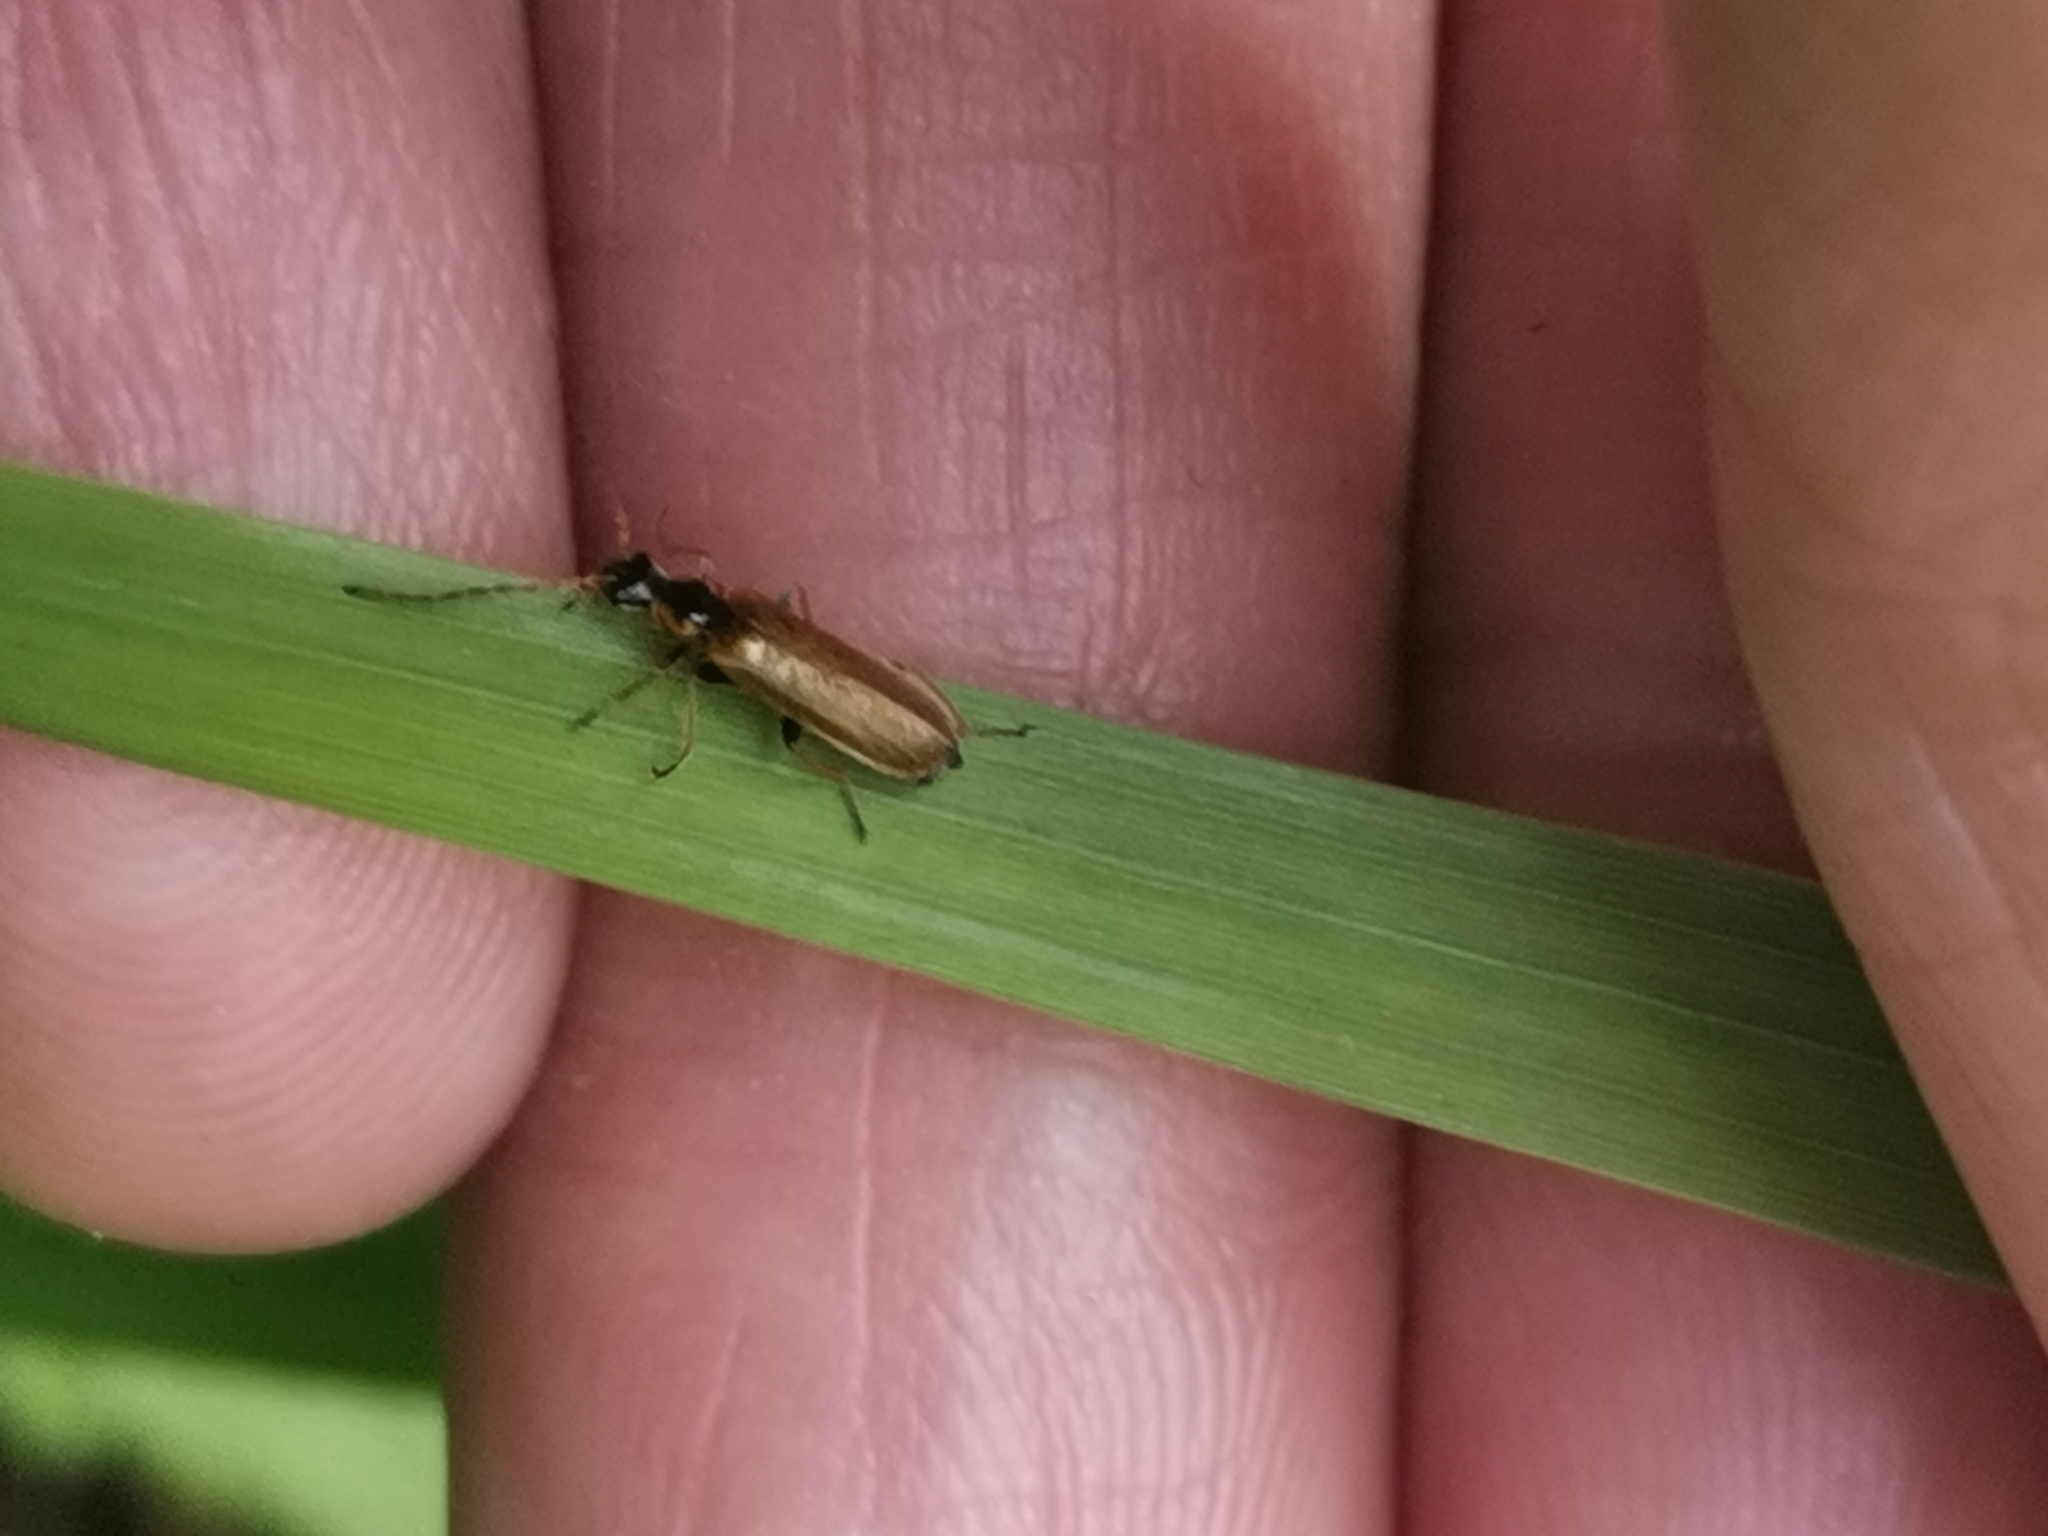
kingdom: Animalia
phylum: Arthropoda
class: Insecta
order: Coleoptera
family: Cantharidae
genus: Rhagonycha
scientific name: Rhagonycha nigriventris
